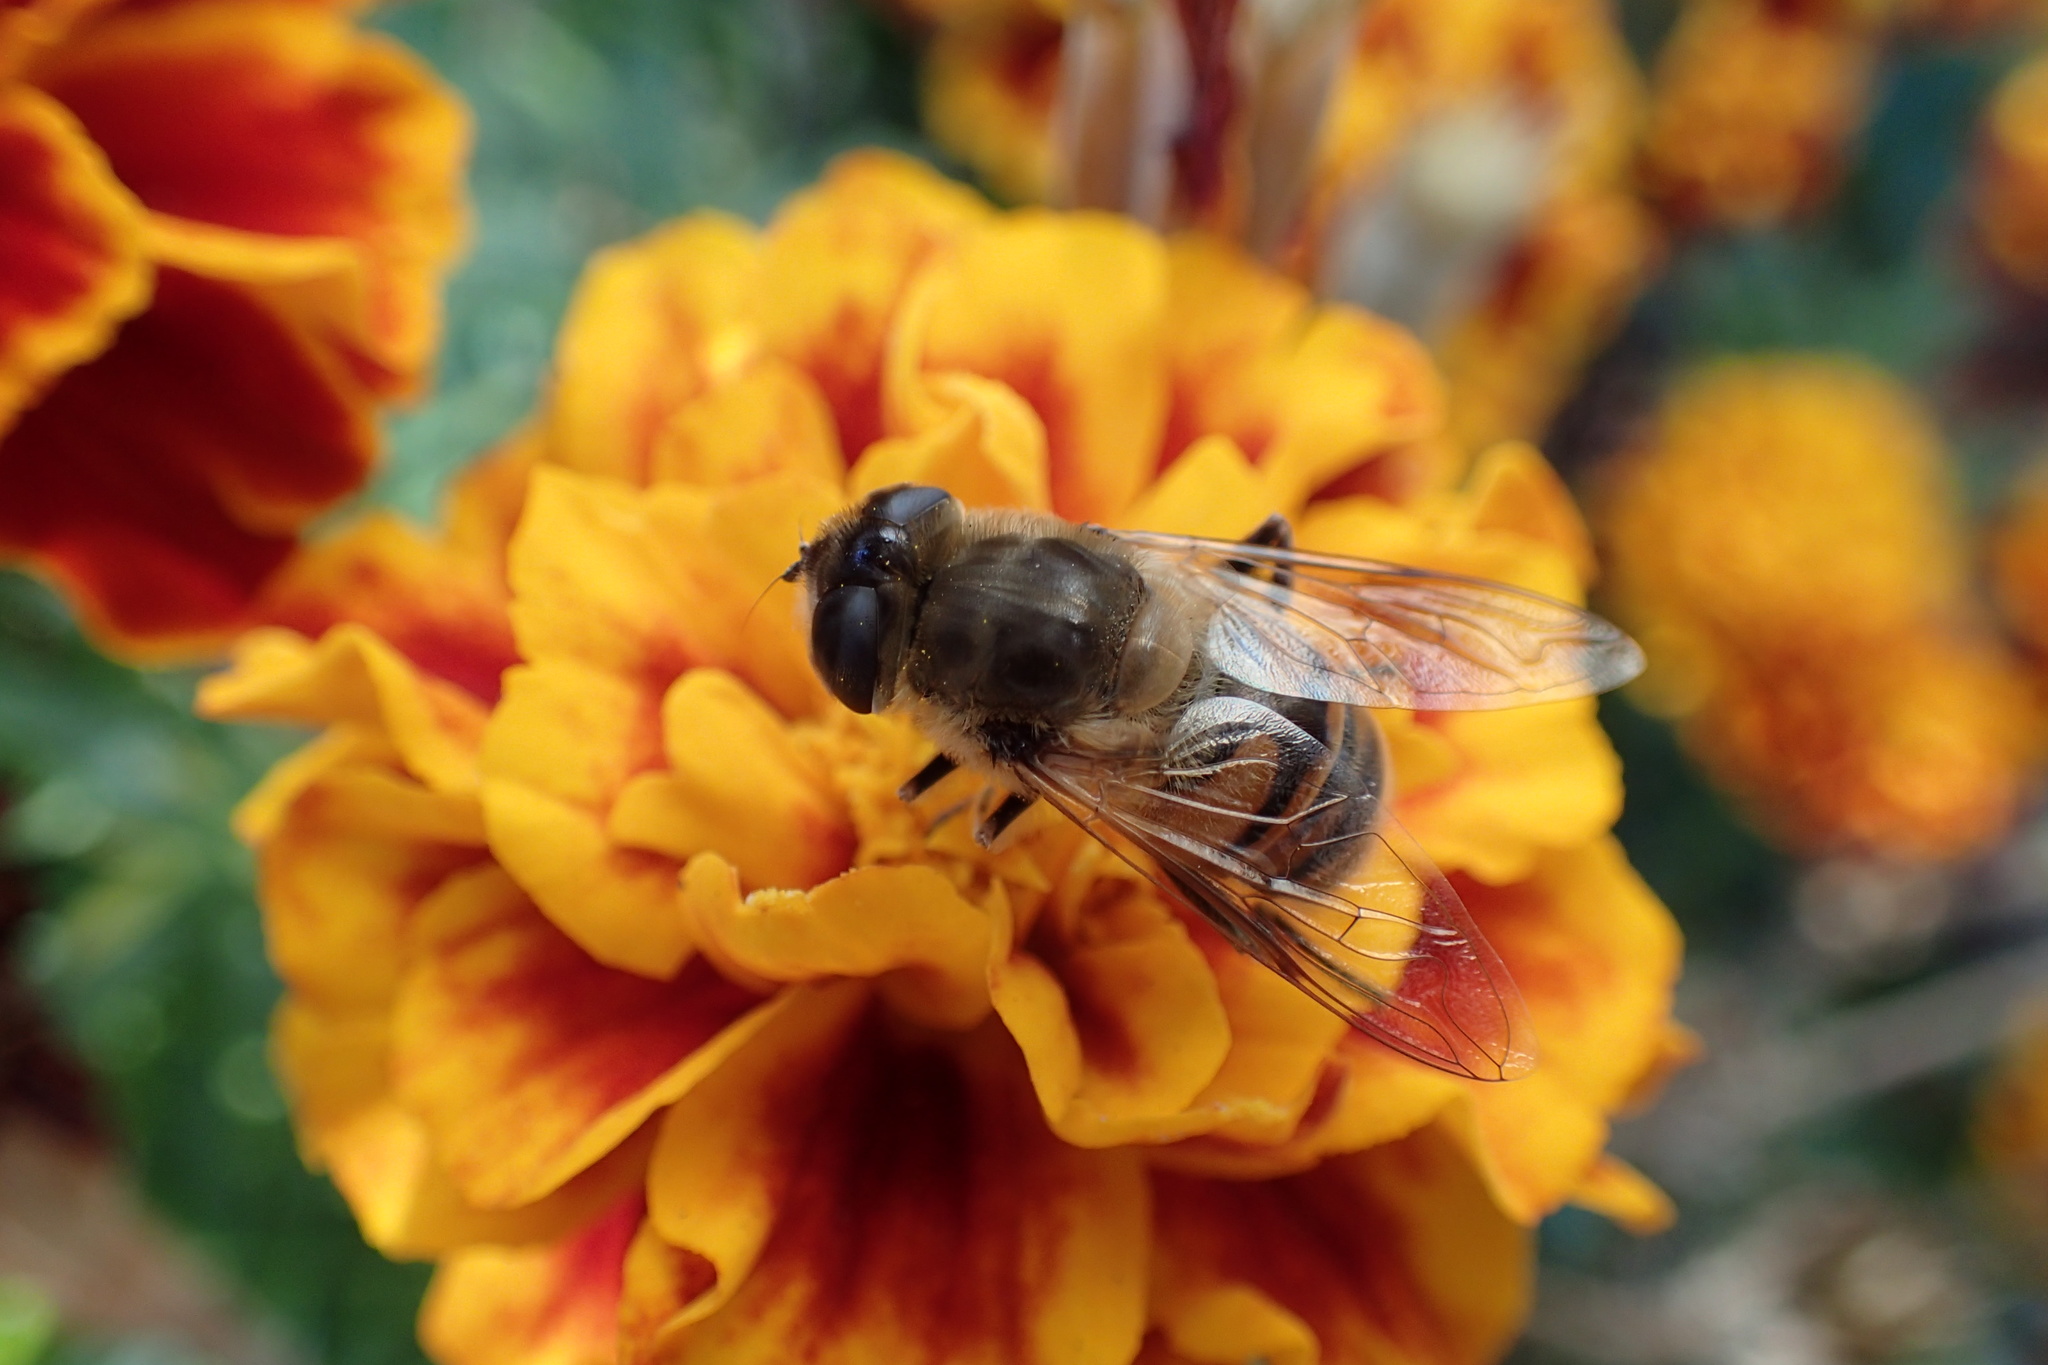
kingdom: Animalia
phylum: Arthropoda
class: Insecta
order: Diptera
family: Syrphidae
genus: Eristalis
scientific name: Eristalis tenax
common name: Drone fly
